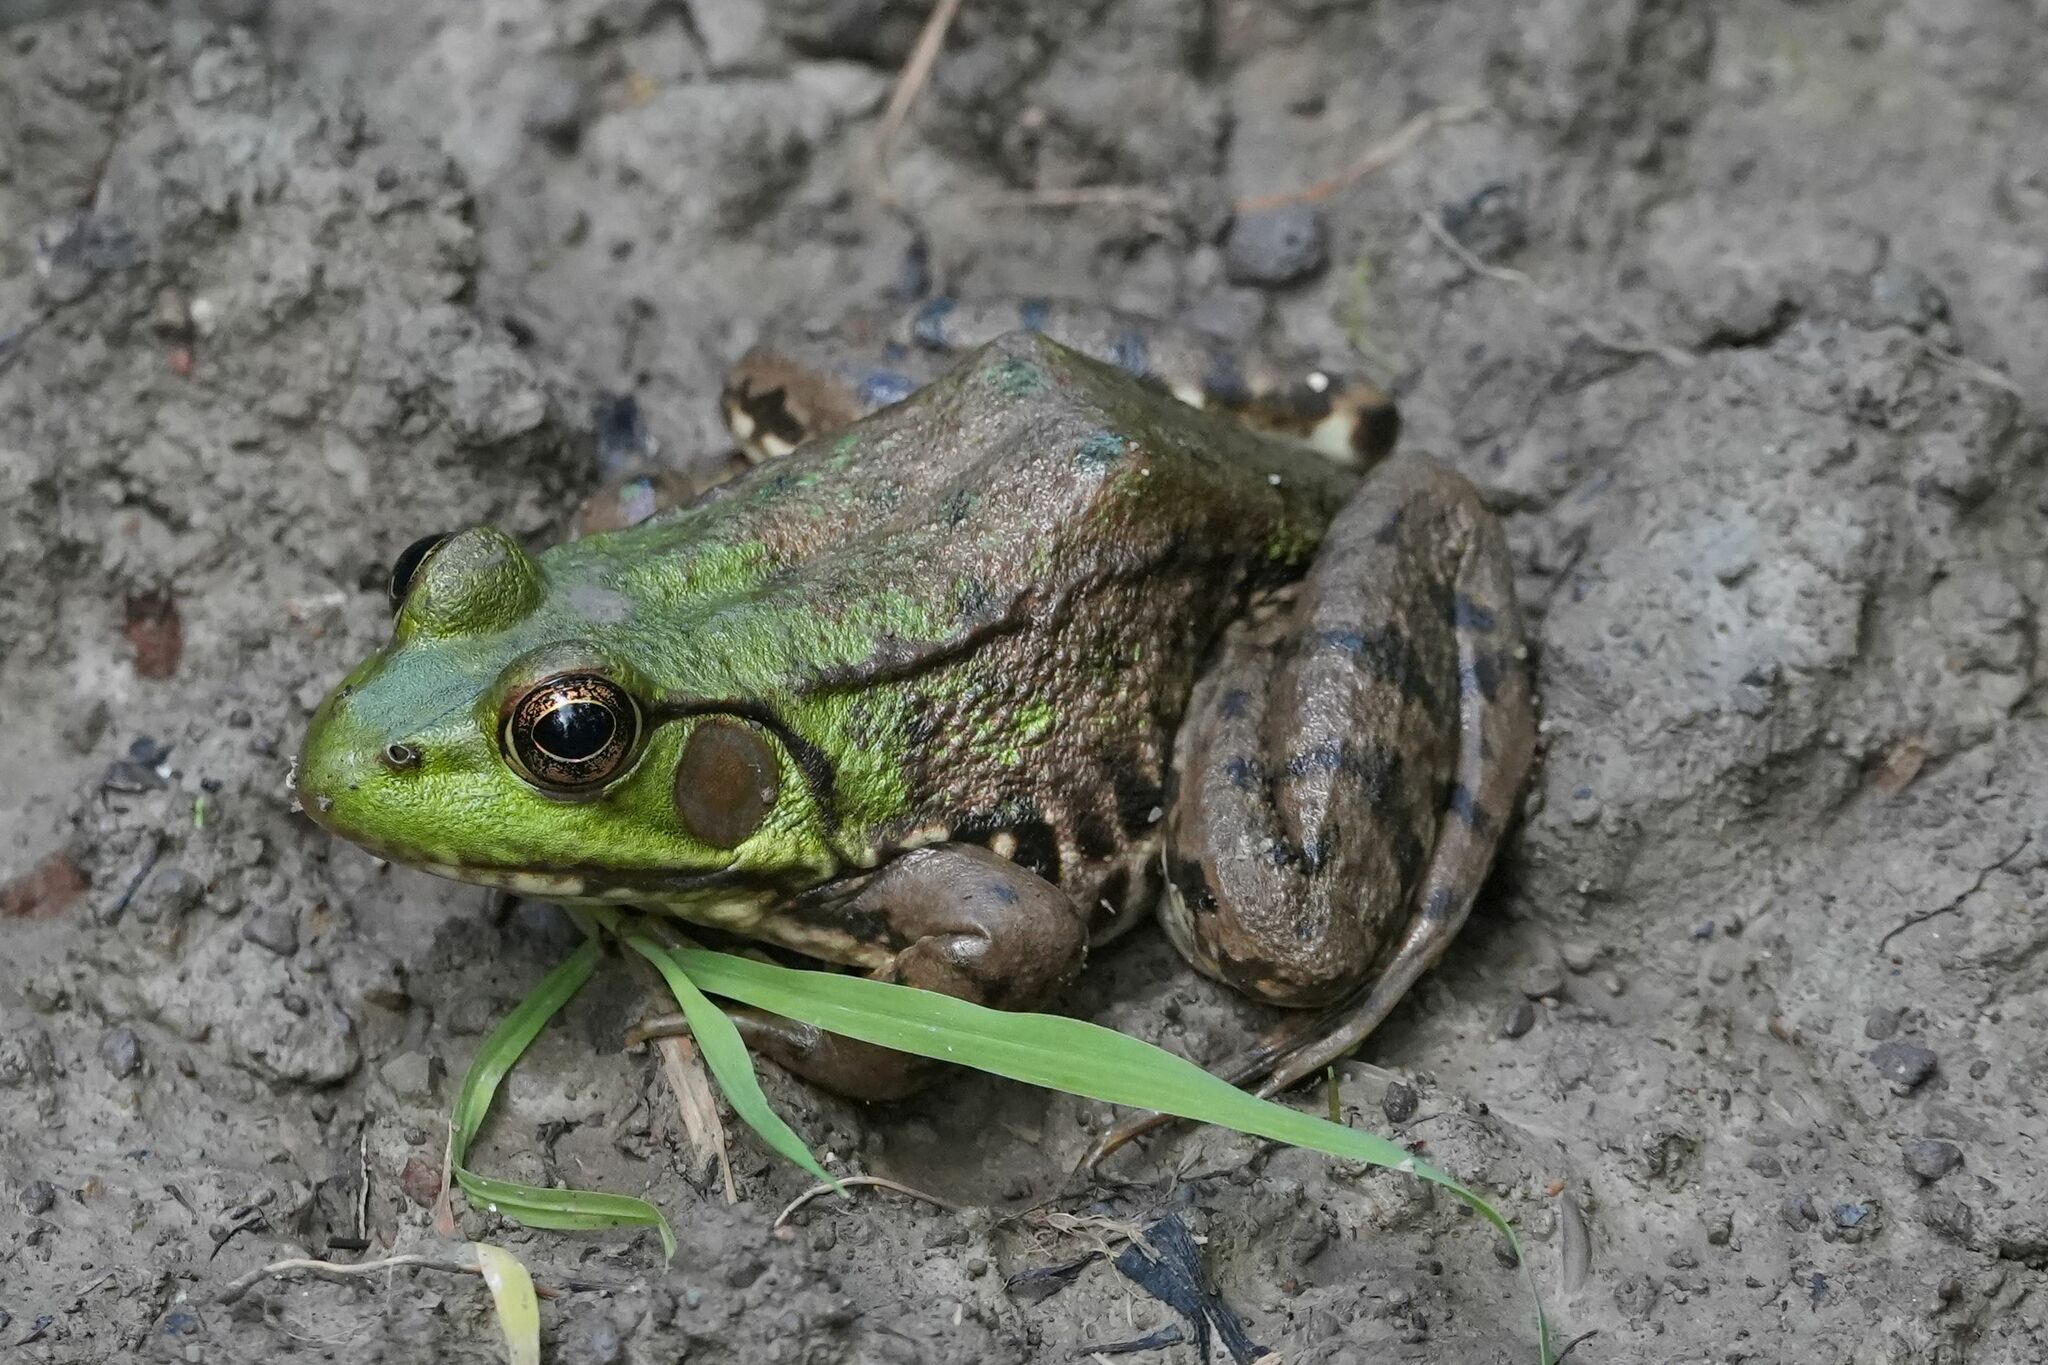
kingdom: Animalia
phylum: Chordata
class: Amphibia
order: Anura
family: Ranidae
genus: Lithobates
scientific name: Lithobates clamitans
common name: Green frog
